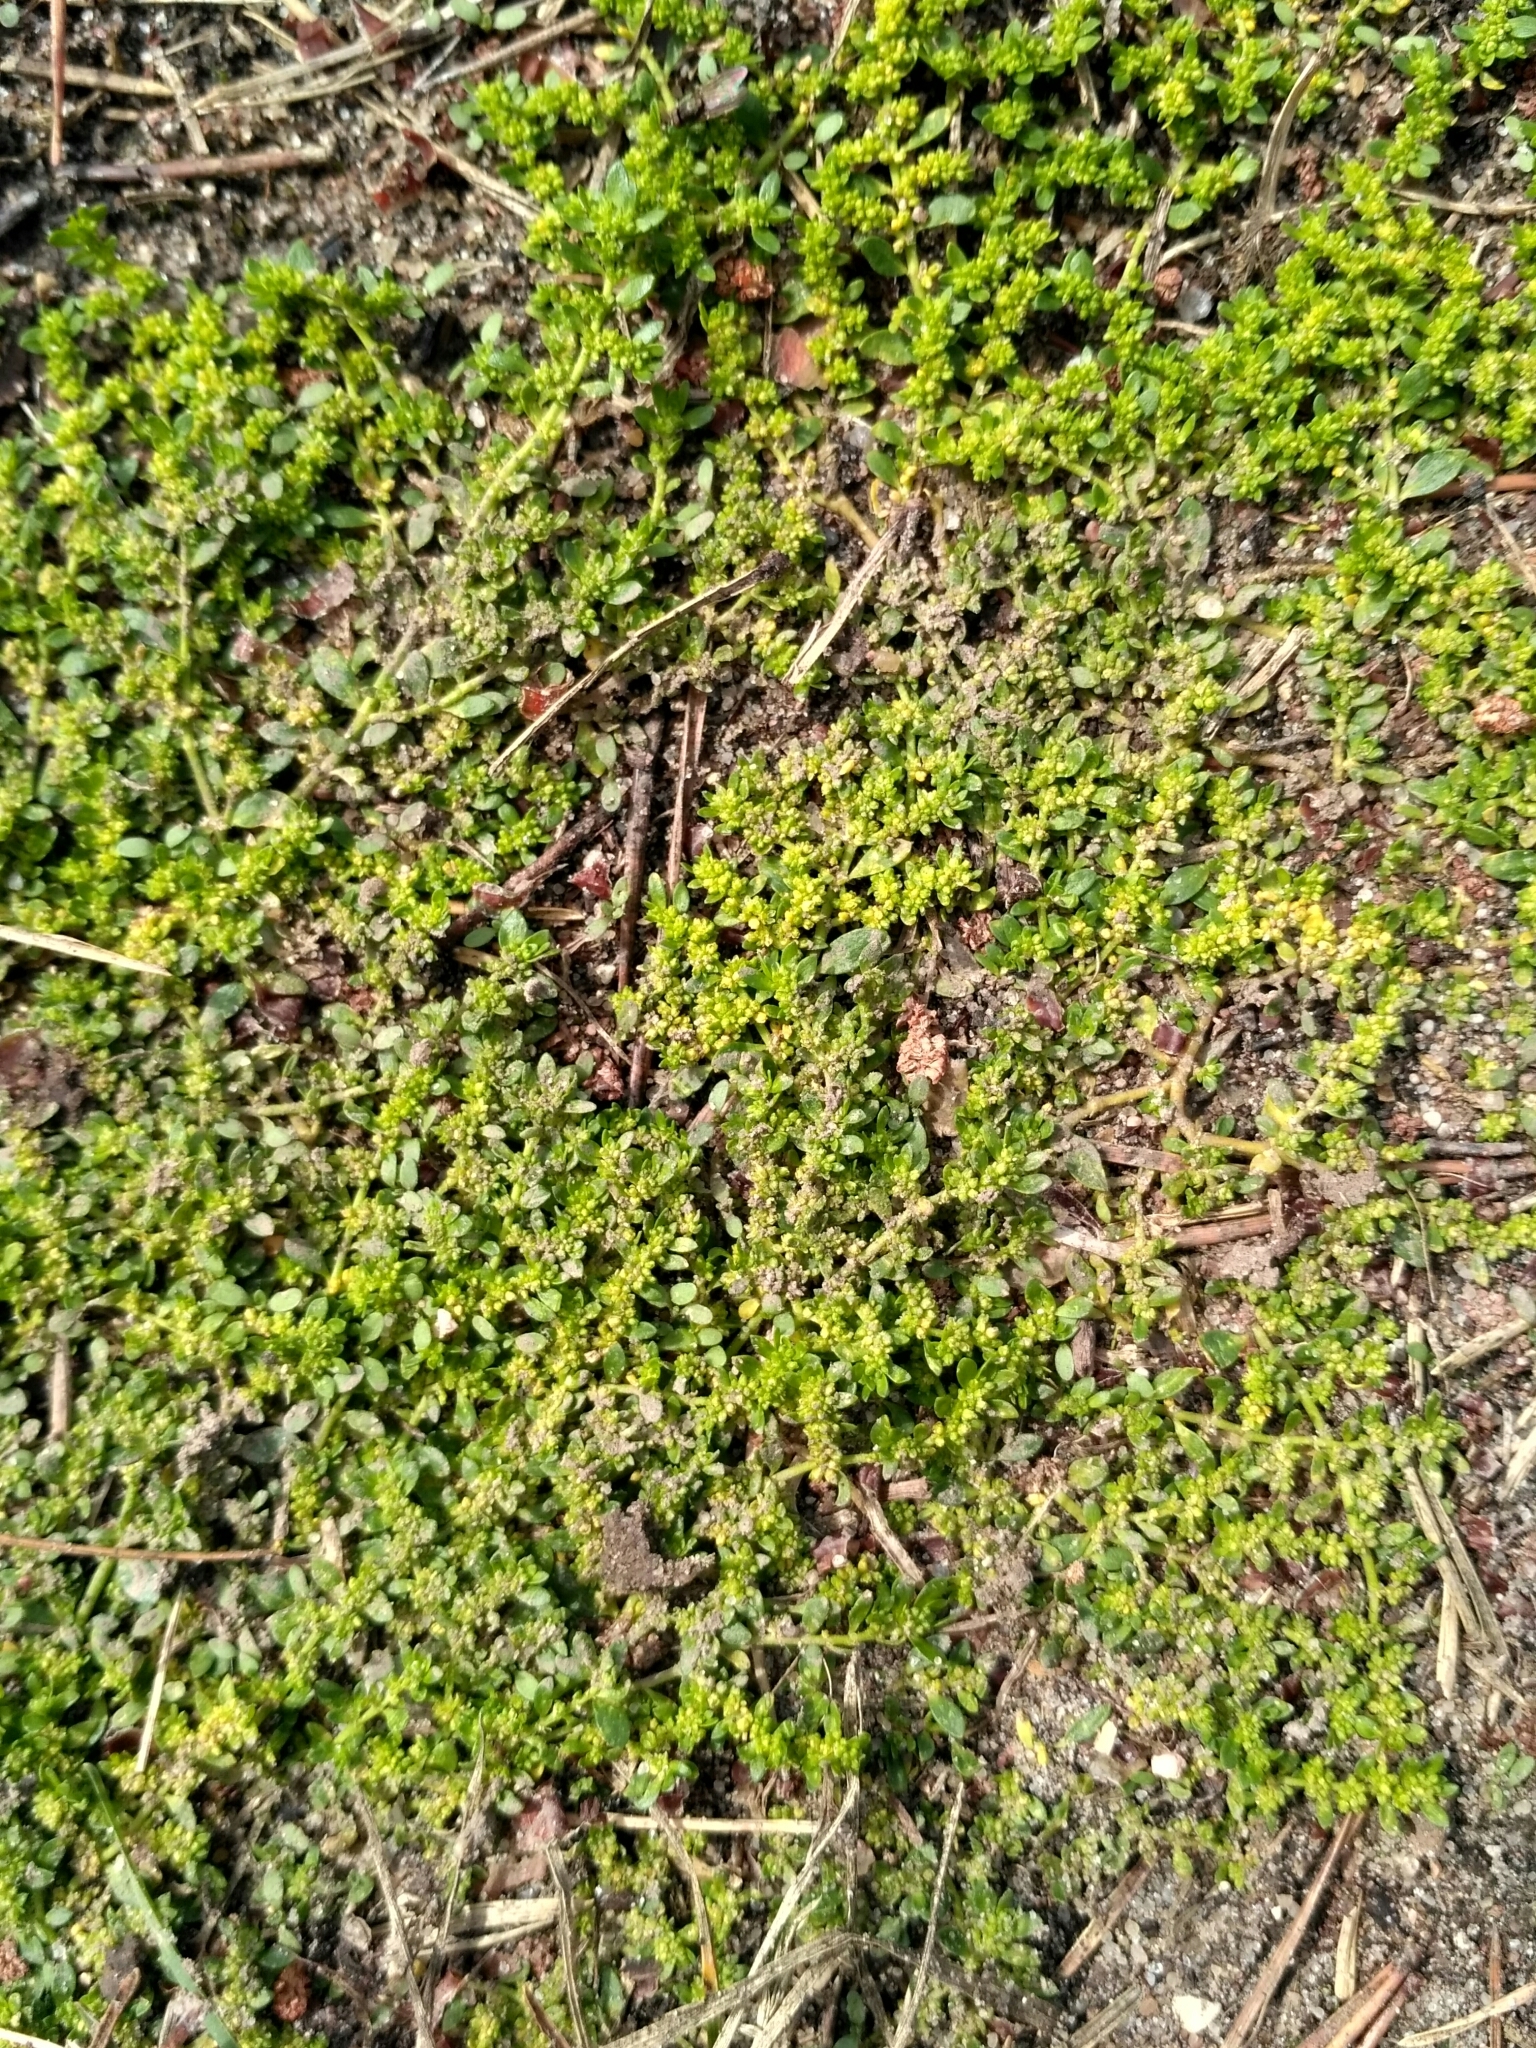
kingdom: Plantae
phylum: Tracheophyta
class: Magnoliopsida
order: Caryophyllales
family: Caryophyllaceae
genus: Herniaria
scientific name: Herniaria glabra
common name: Smooth rupturewort
